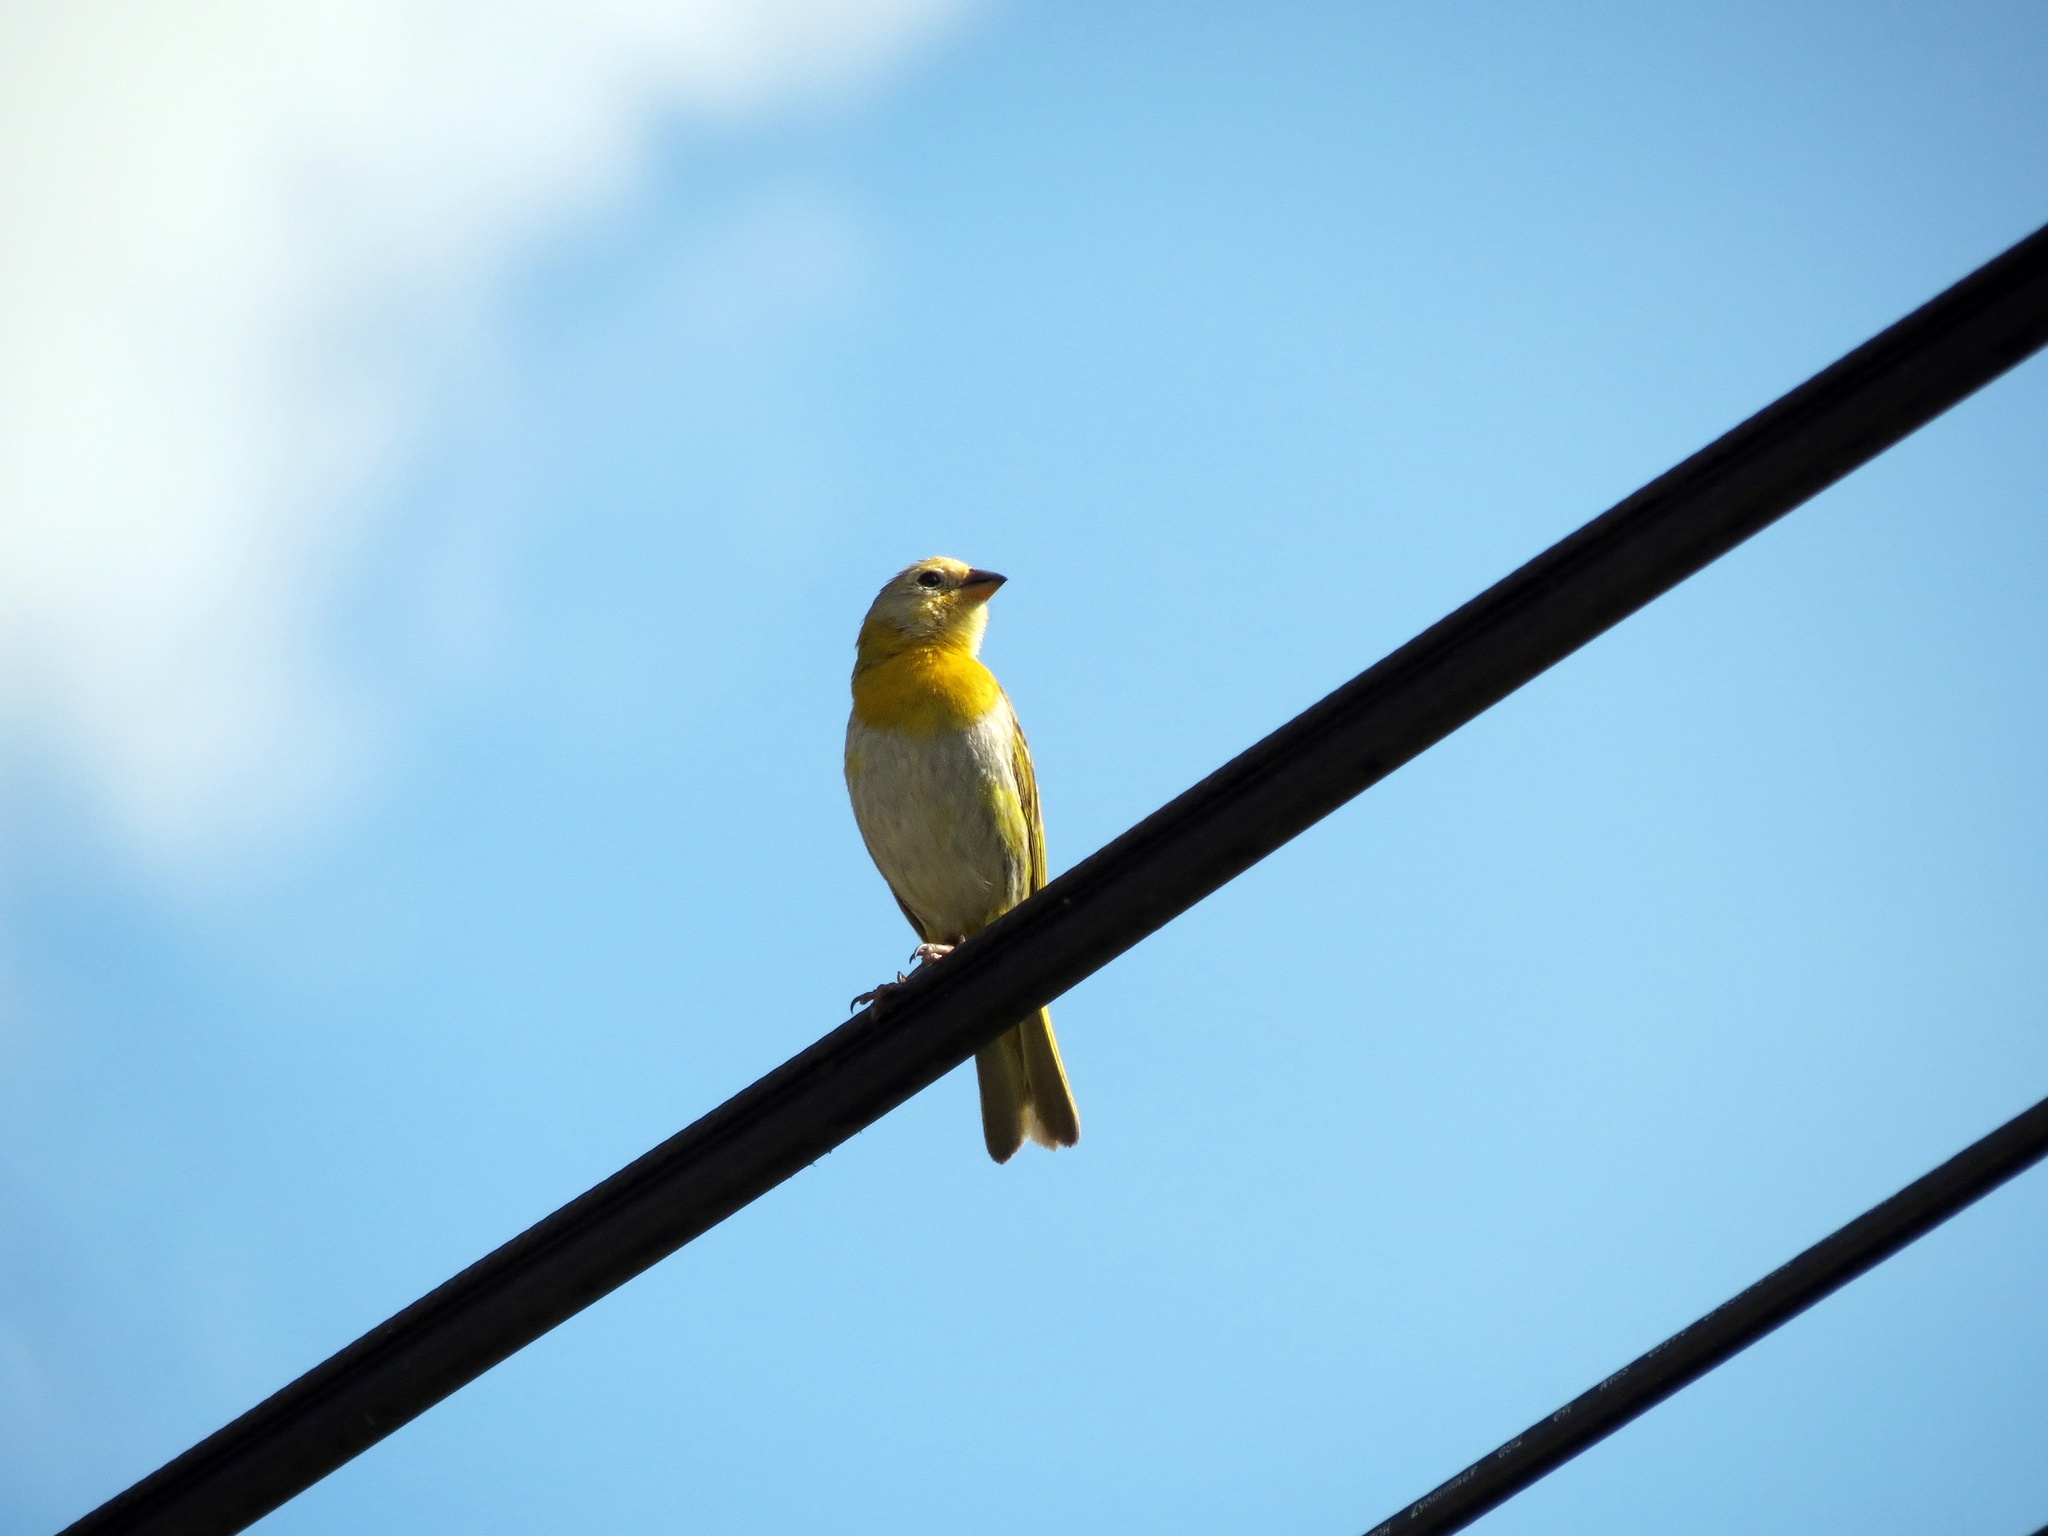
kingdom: Animalia
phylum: Chordata
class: Aves
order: Passeriformes
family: Thraupidae
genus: Sicalis
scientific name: Sicalis flaveola
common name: Saffron finch
